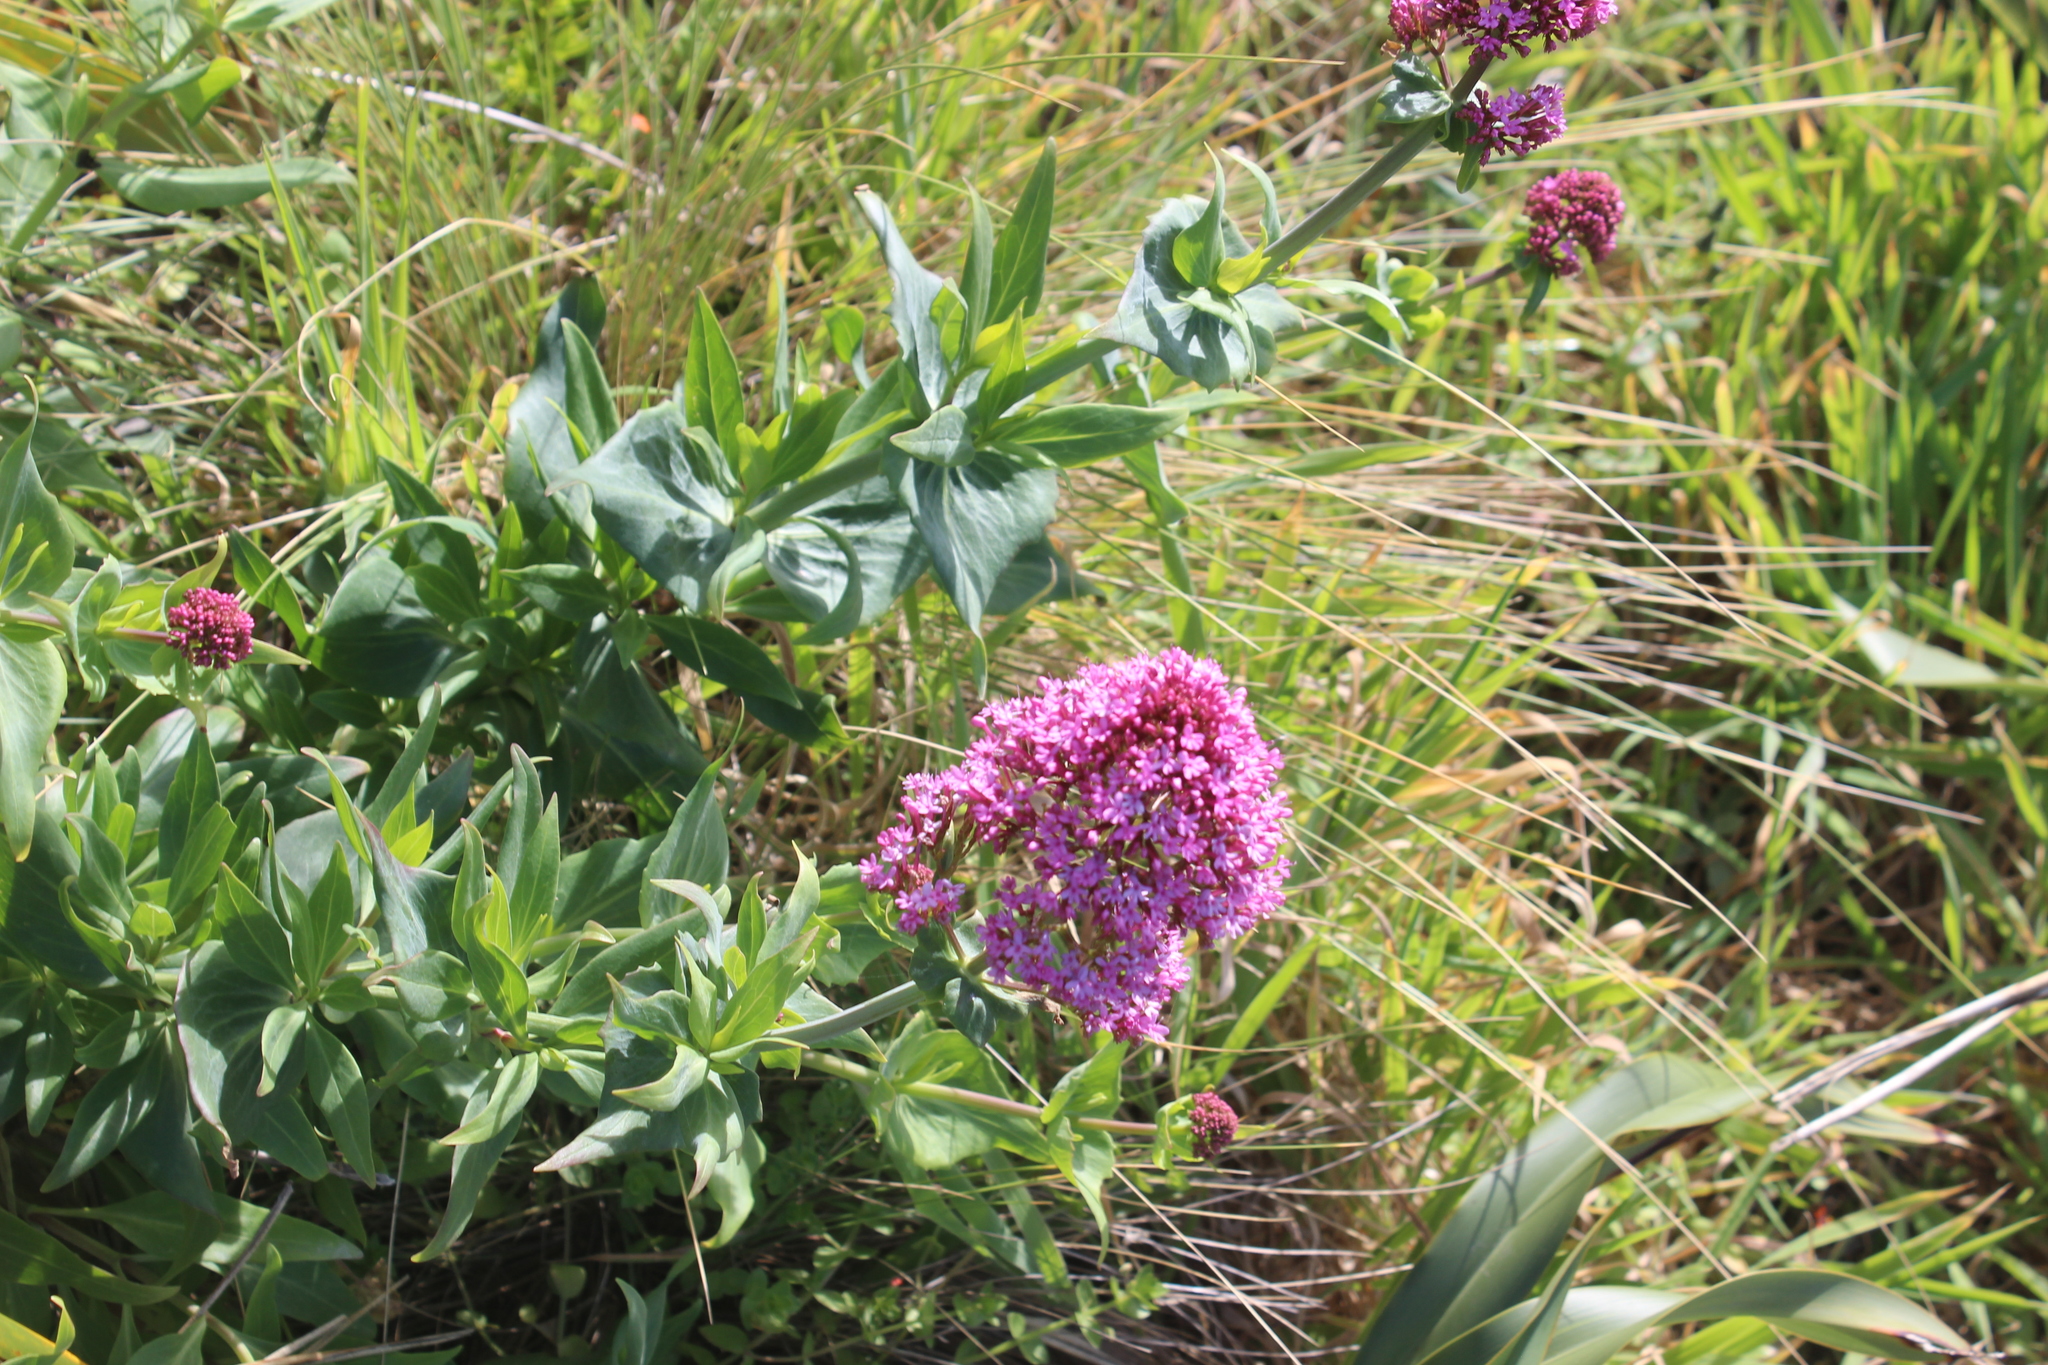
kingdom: Plantae
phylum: Tracheophyta
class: Magnoliopsida
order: Dipsacales
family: Caprifoliaceae
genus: Centranthus
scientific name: Centranthus ruber
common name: Red valerian
